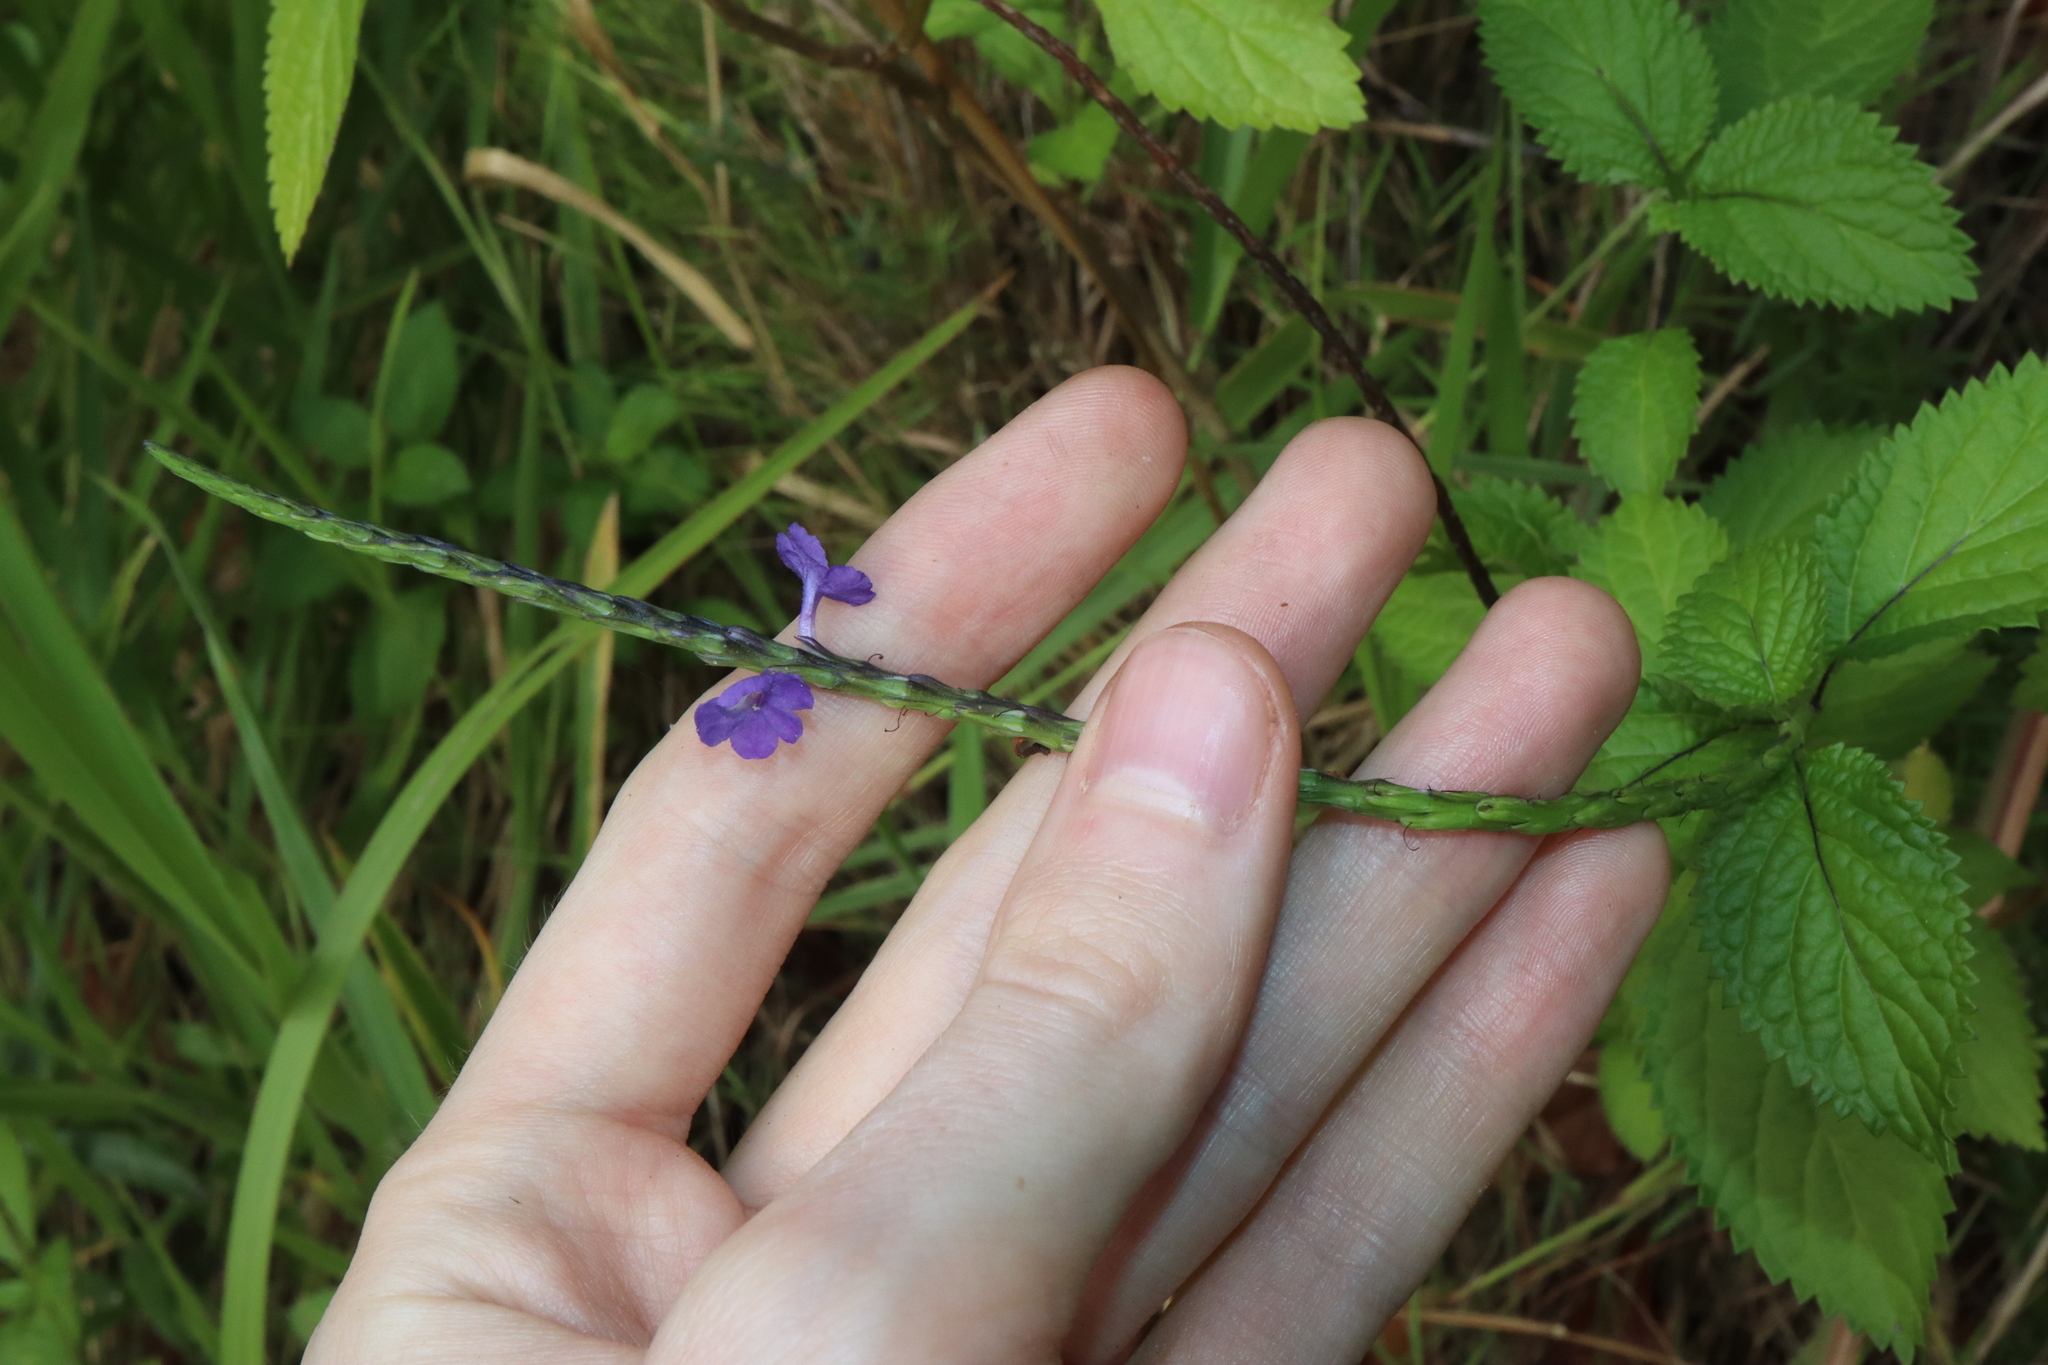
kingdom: Plantae
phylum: Tracheophyta
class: Magnoliopsida
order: Lamiales
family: Verbenaceae
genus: Stachytarpheta
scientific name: Stachytarpheta cayennensis
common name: Cayenne porterweed
